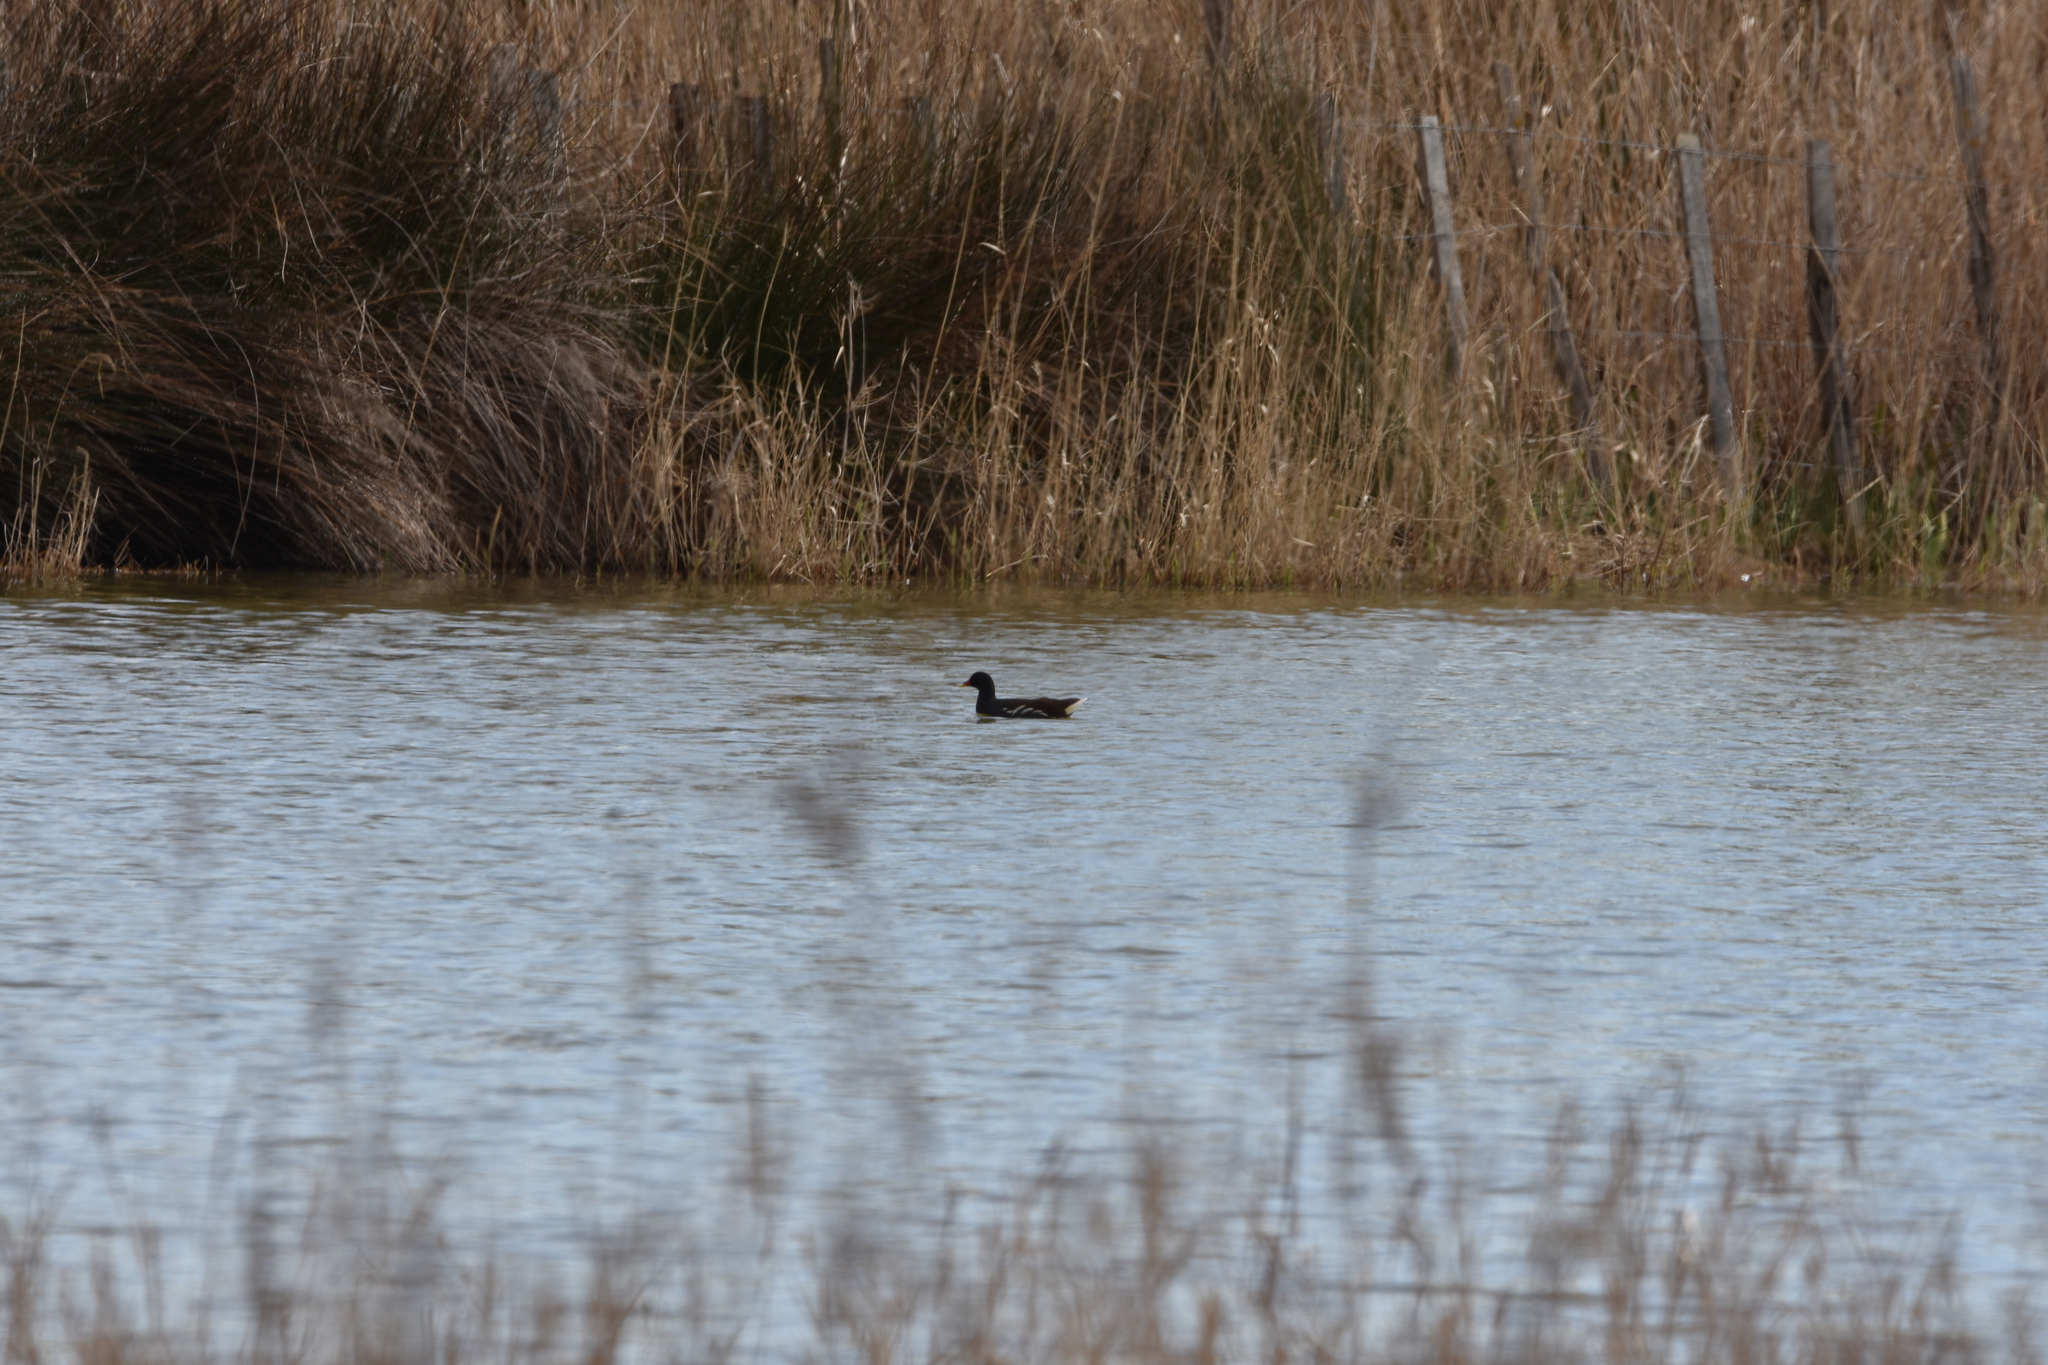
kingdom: Animalia
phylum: Chordata
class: Aves
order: Gruiformes
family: Rallidae
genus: Gallinula
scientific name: Gallinula chloropus
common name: Common moorhen
